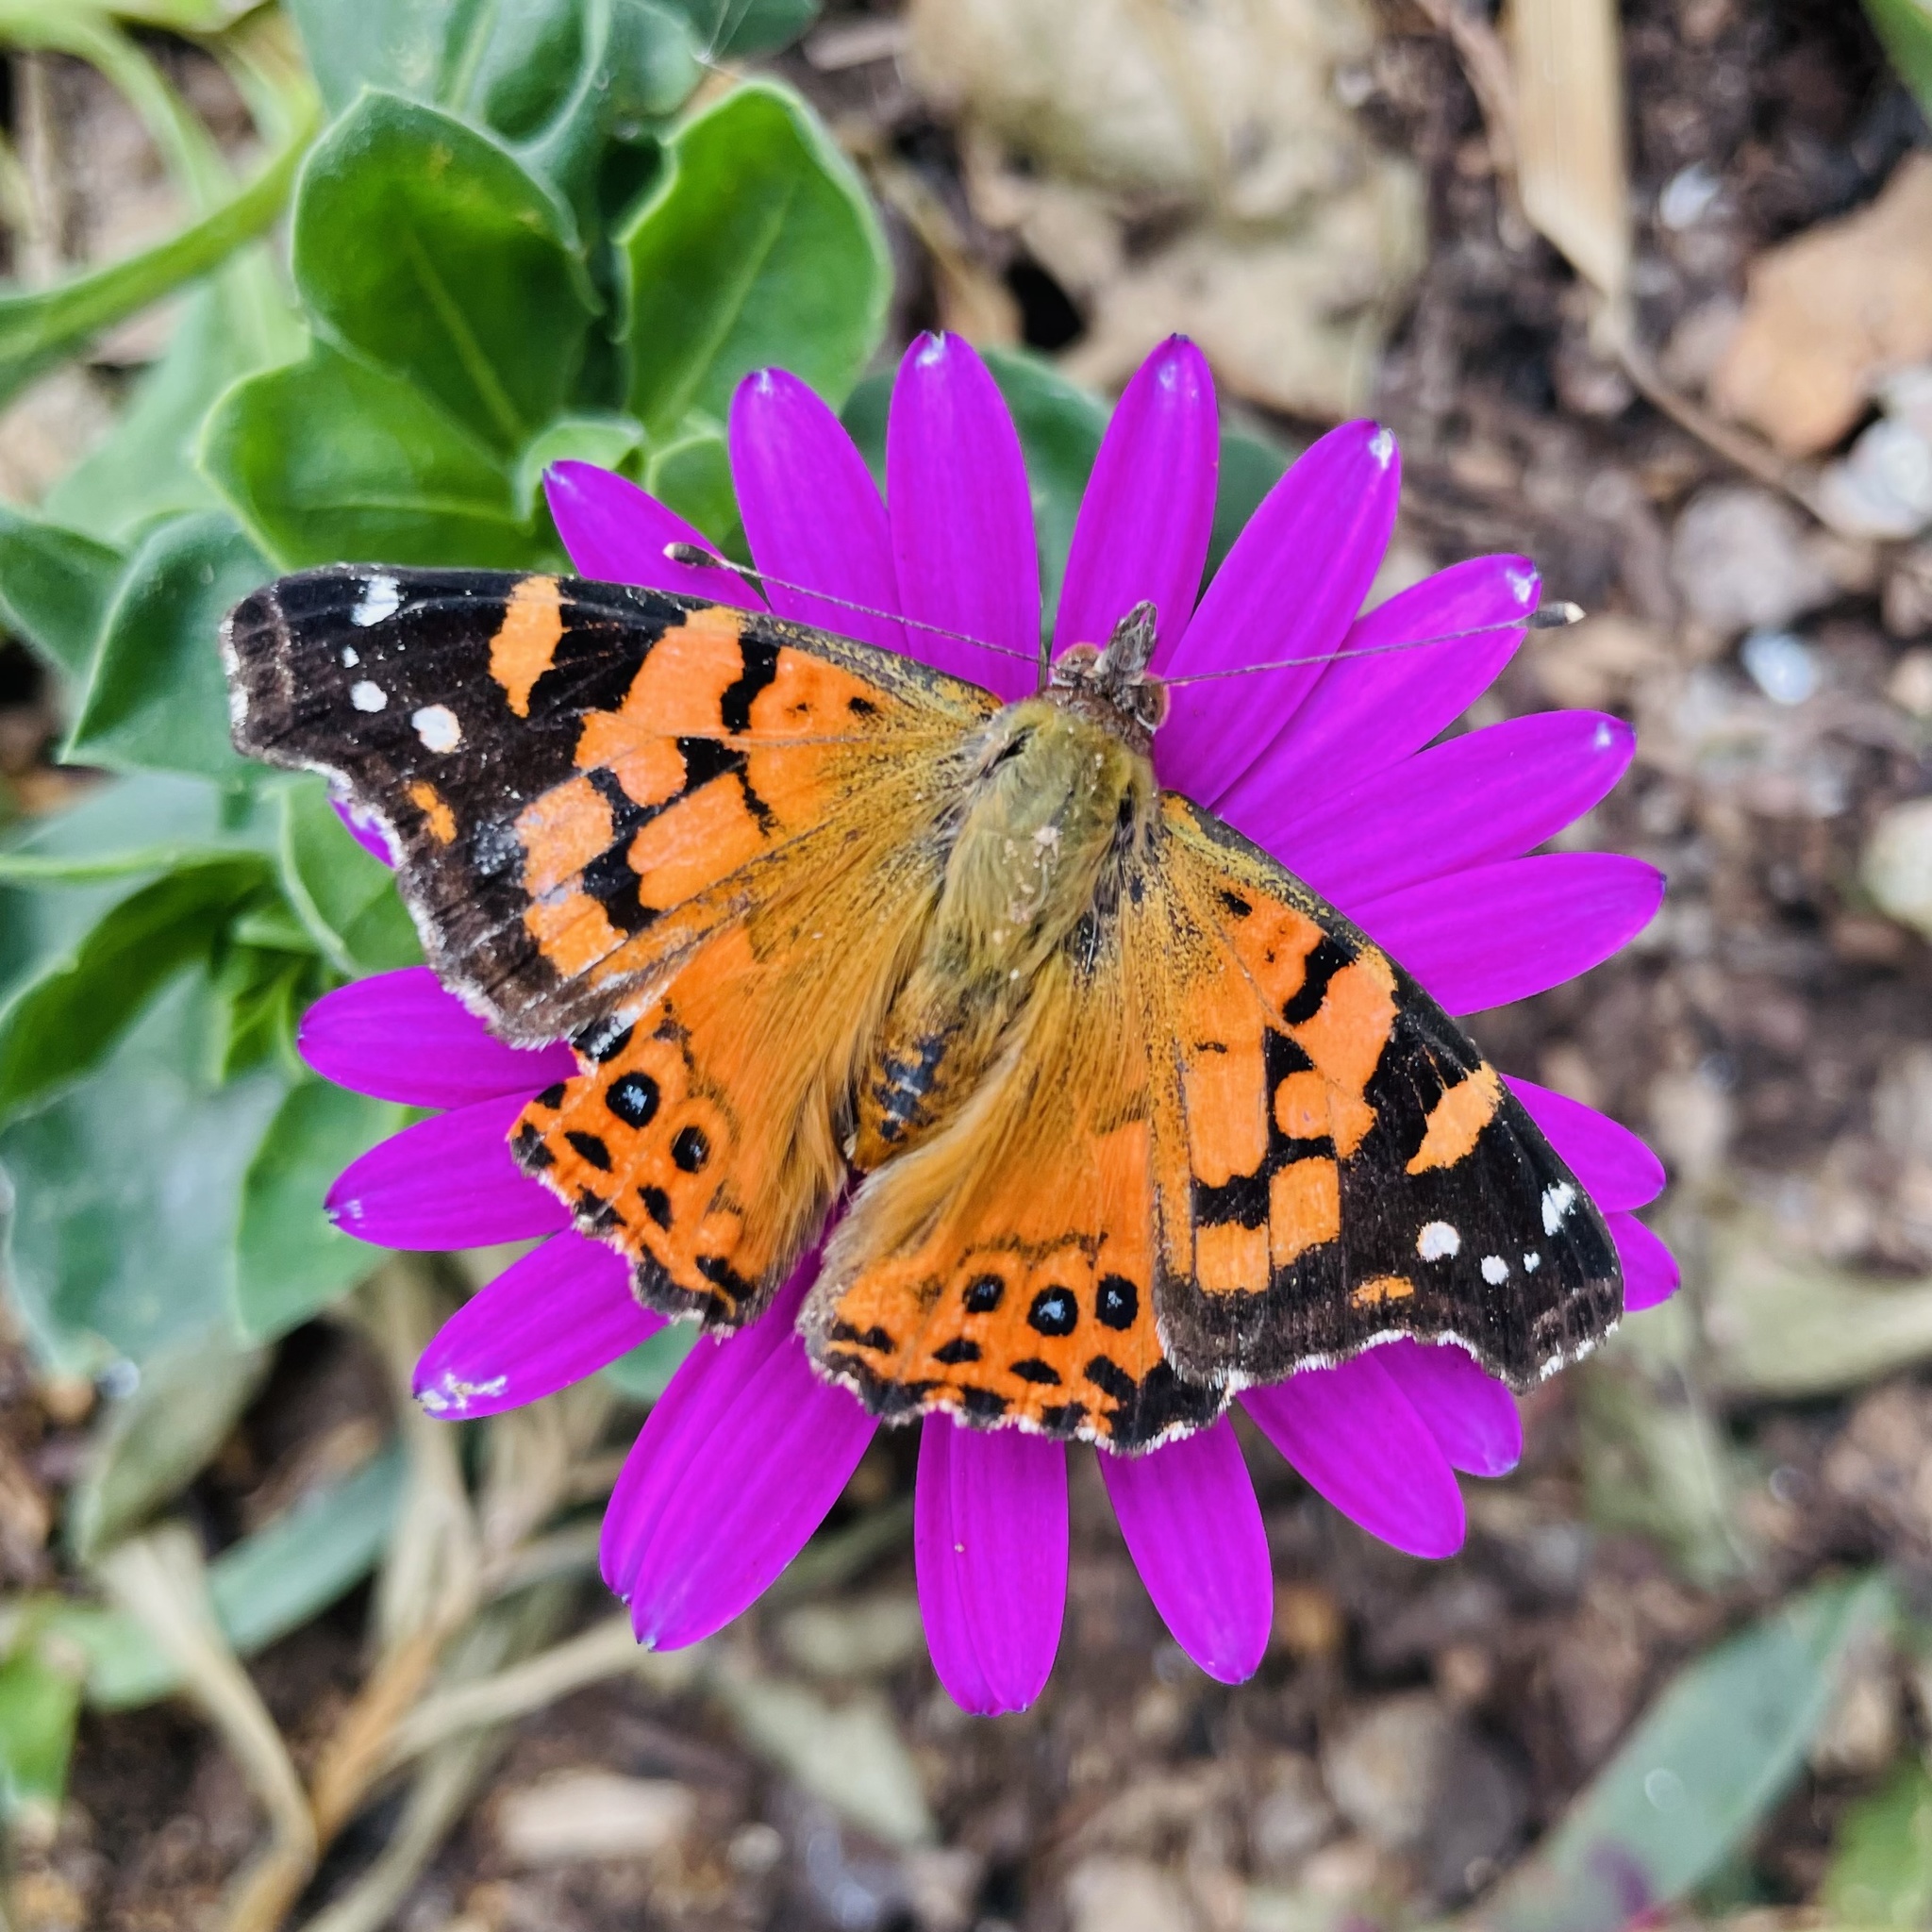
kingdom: Animalia
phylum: Arthropoda
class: Insecta
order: Lepidoptera
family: Nymphalidae
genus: Vanessa
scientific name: Vanessa carye
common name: Subtropical lady
